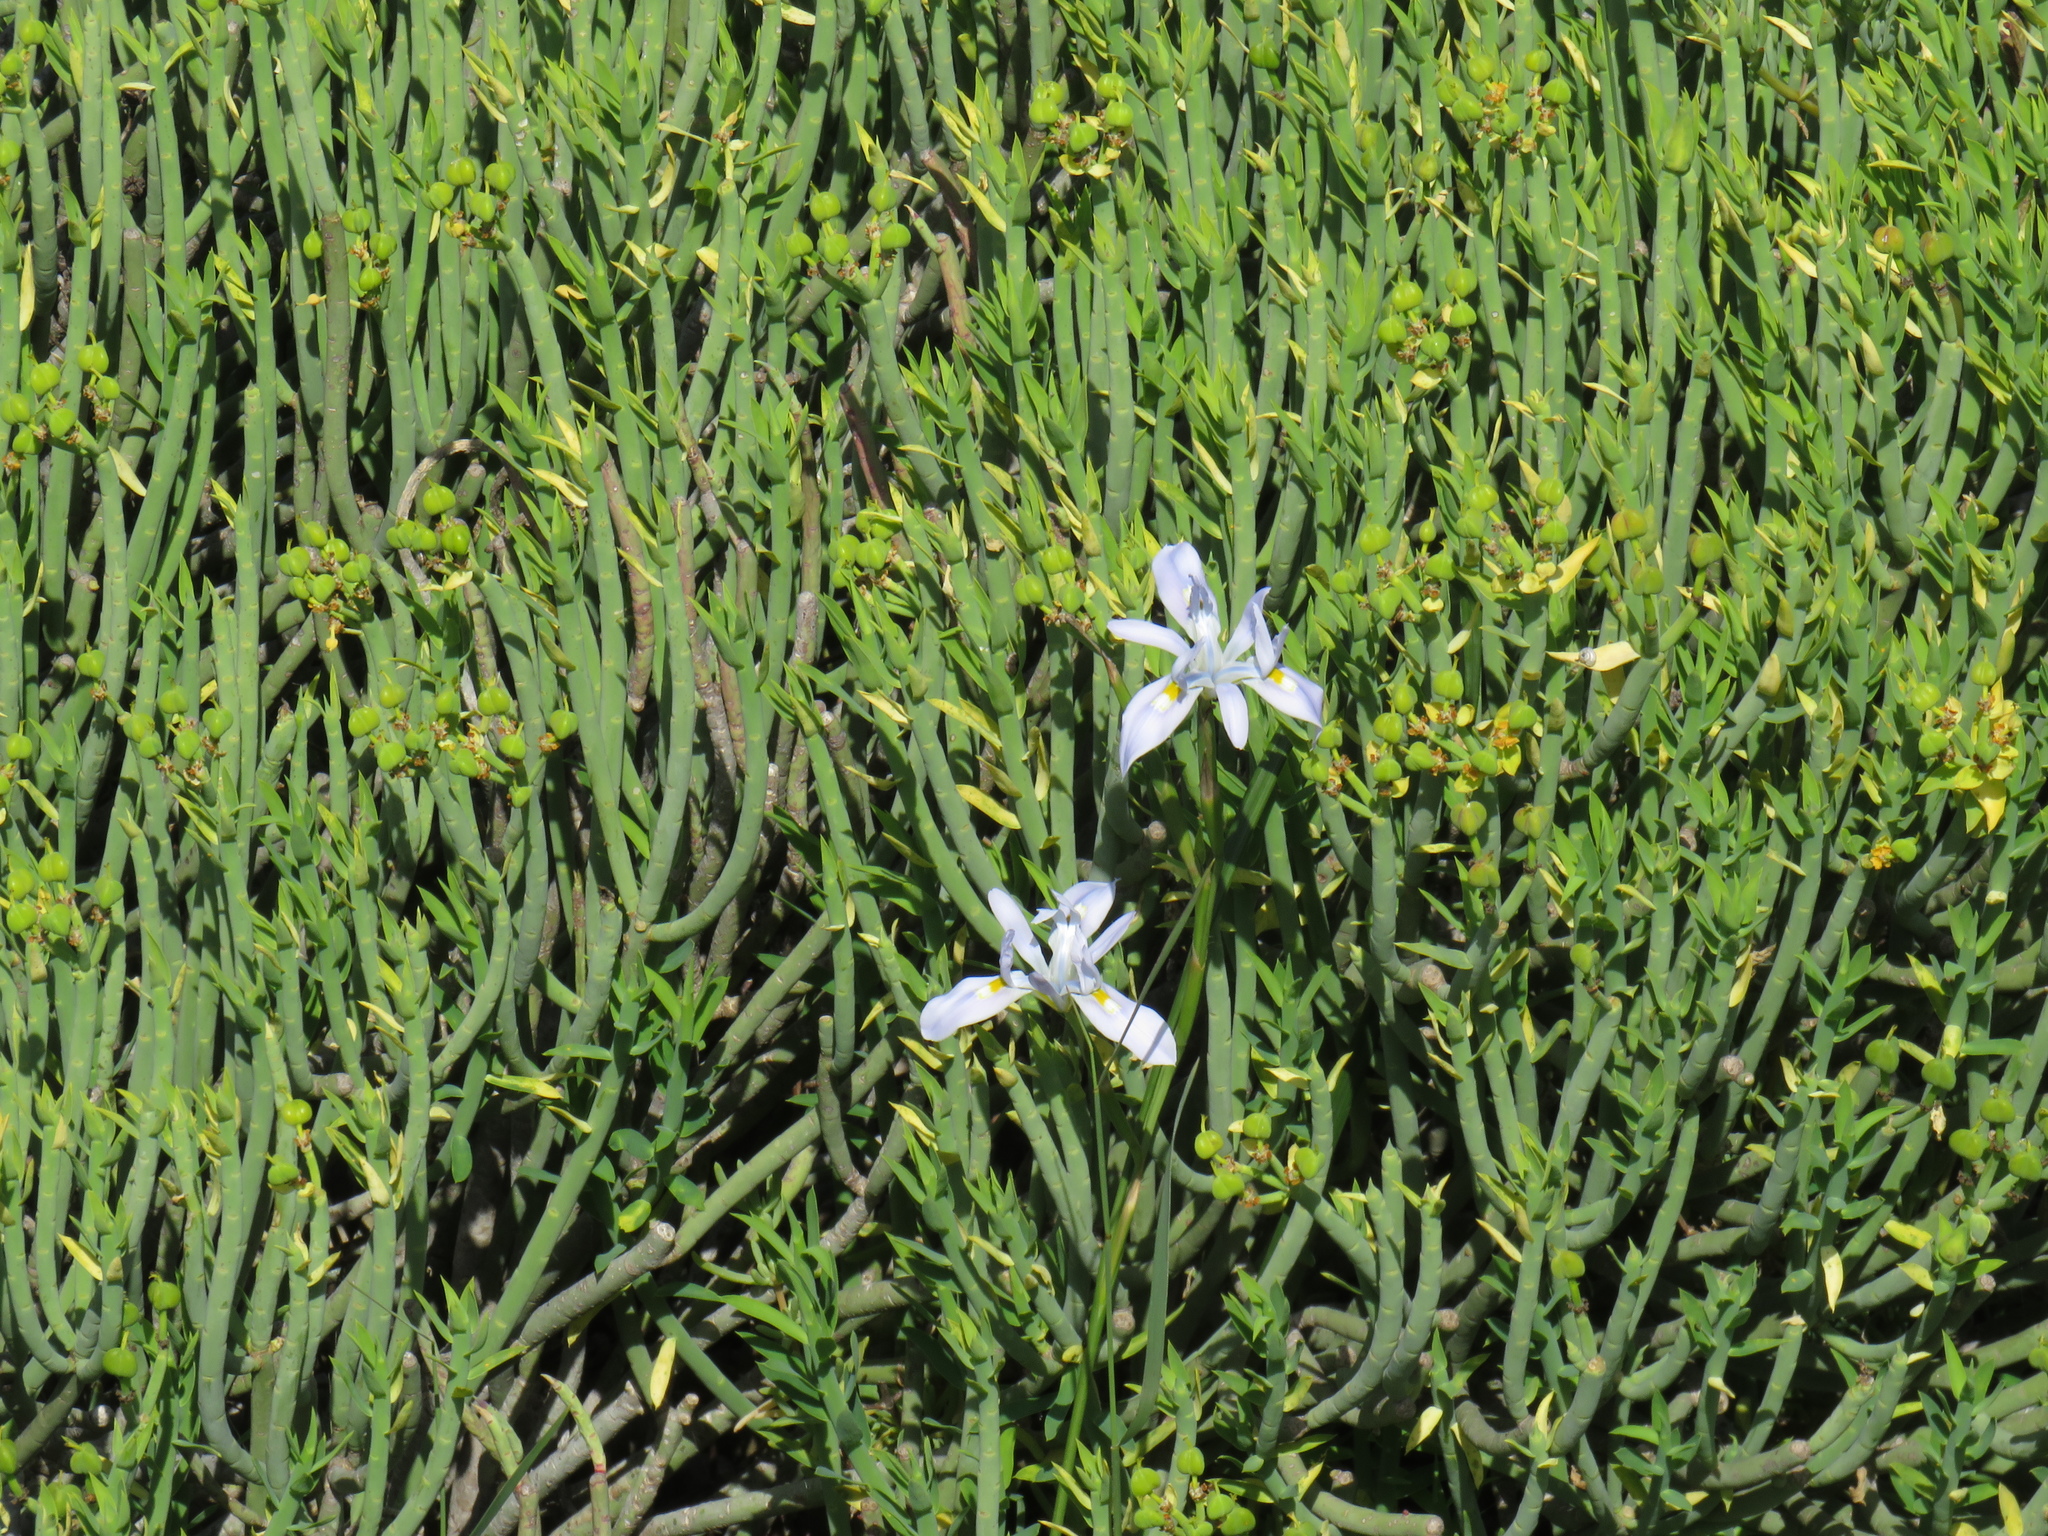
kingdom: Plantae
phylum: Tracheophyta
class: Liliopsida
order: Asparagales
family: Iridaceae
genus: Moraea
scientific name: Moraea fugax
